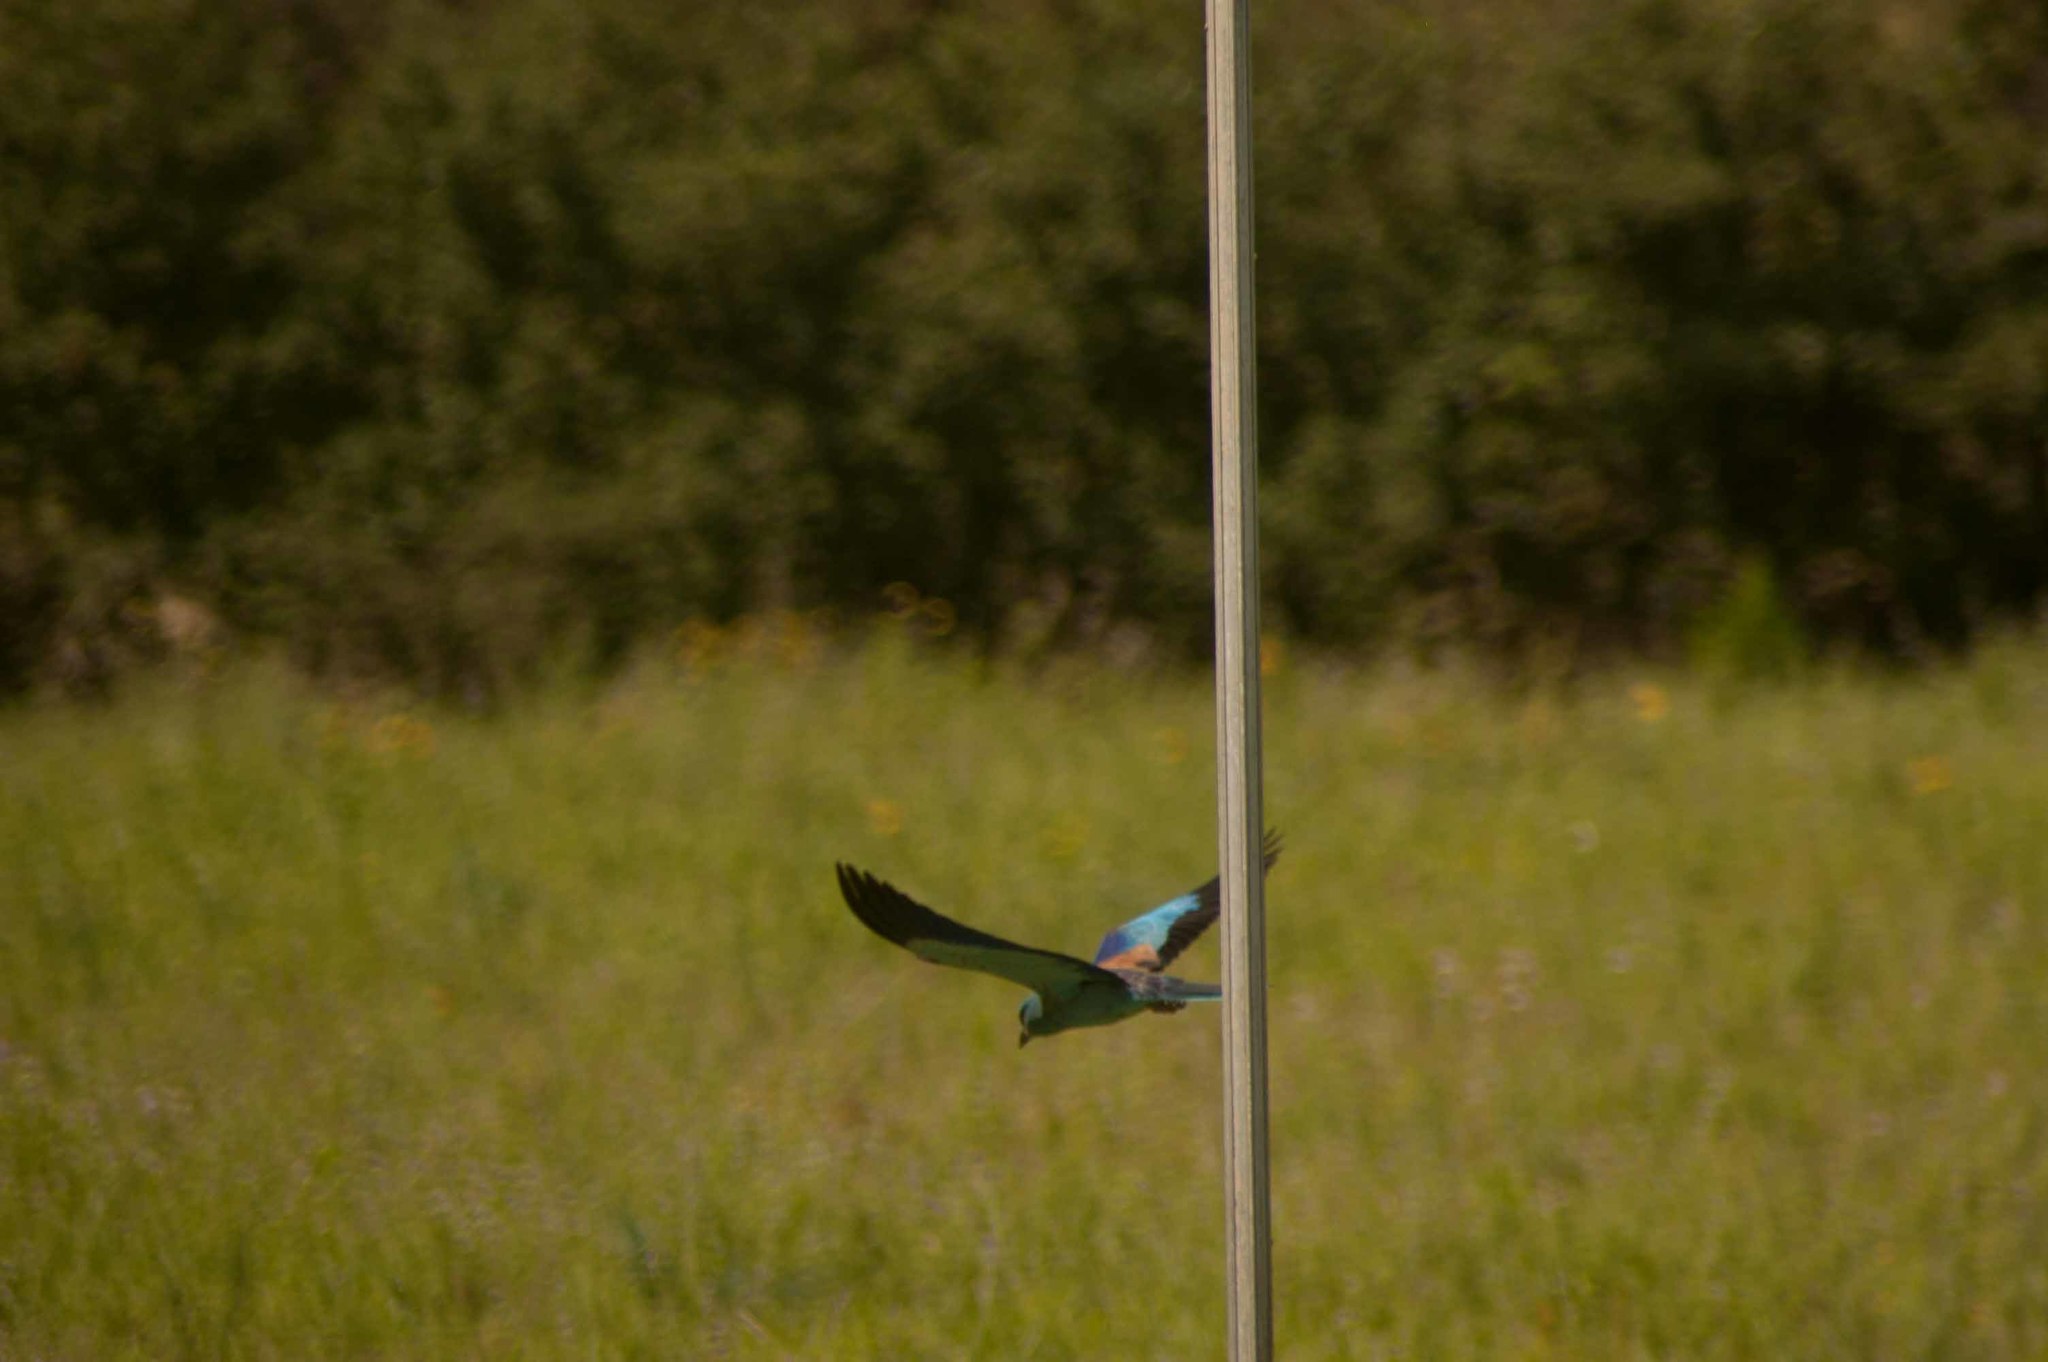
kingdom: Animalia
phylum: Chordata
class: Aves
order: Coraciiformes
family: Coraciidae
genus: Coracias
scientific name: Coracias garrulus
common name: European roller
